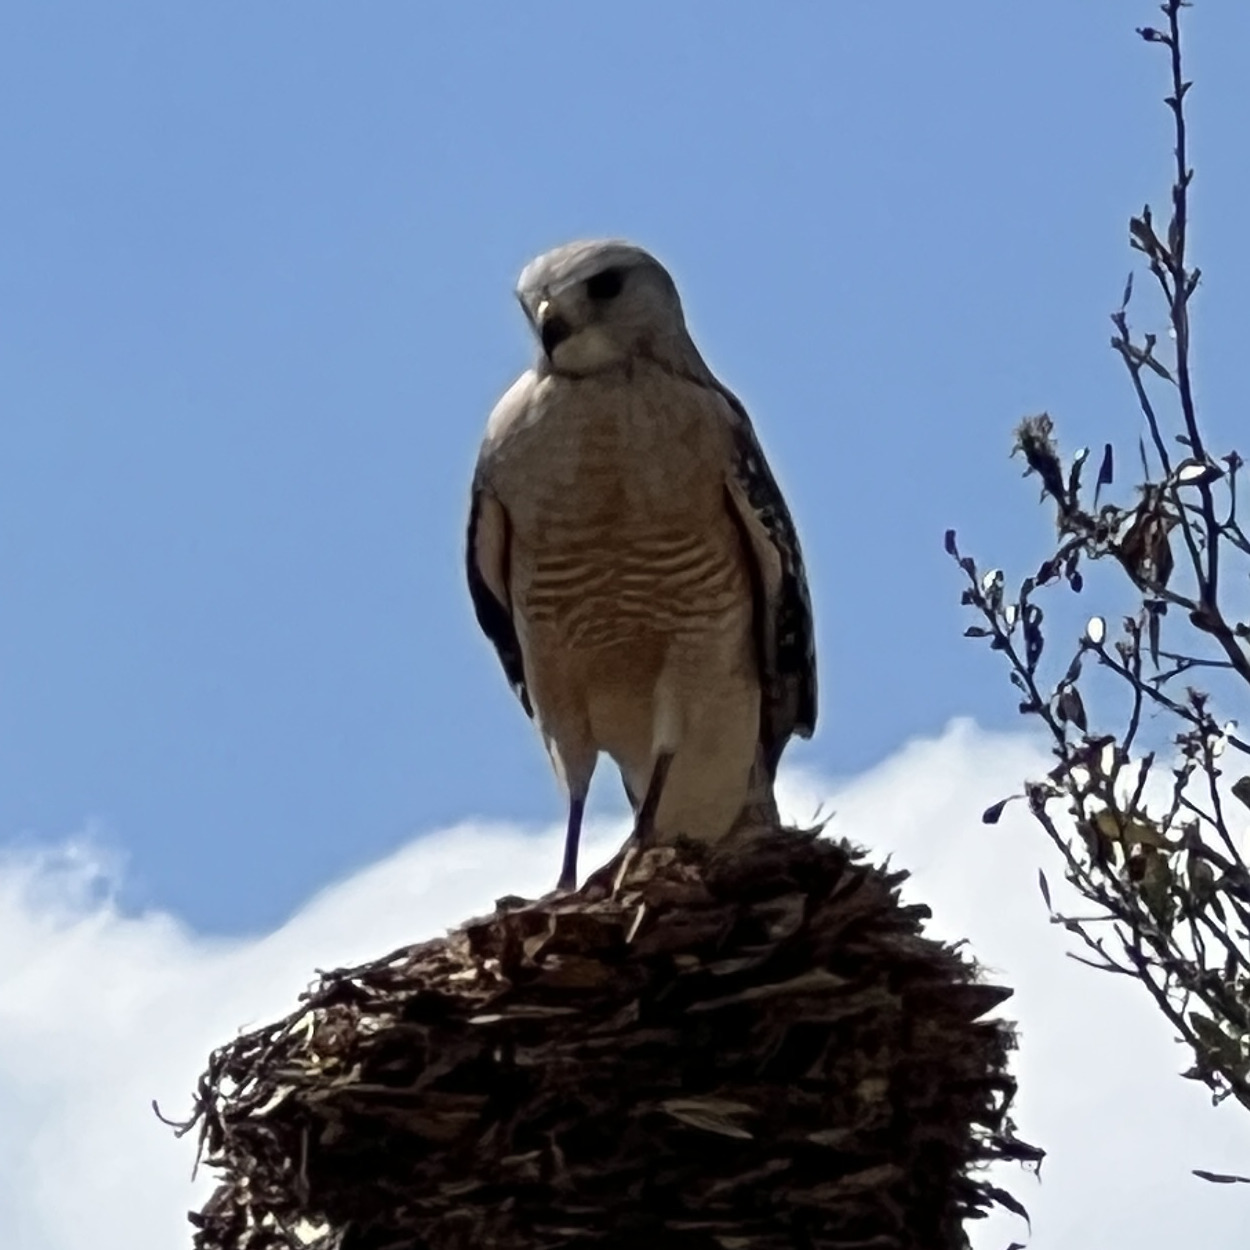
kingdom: Animalia
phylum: Chordata
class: Aves
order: Accipitriformes
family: Accipitridae
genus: Buteo
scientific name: Buteo lineatus
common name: Red-shouldered hawk
